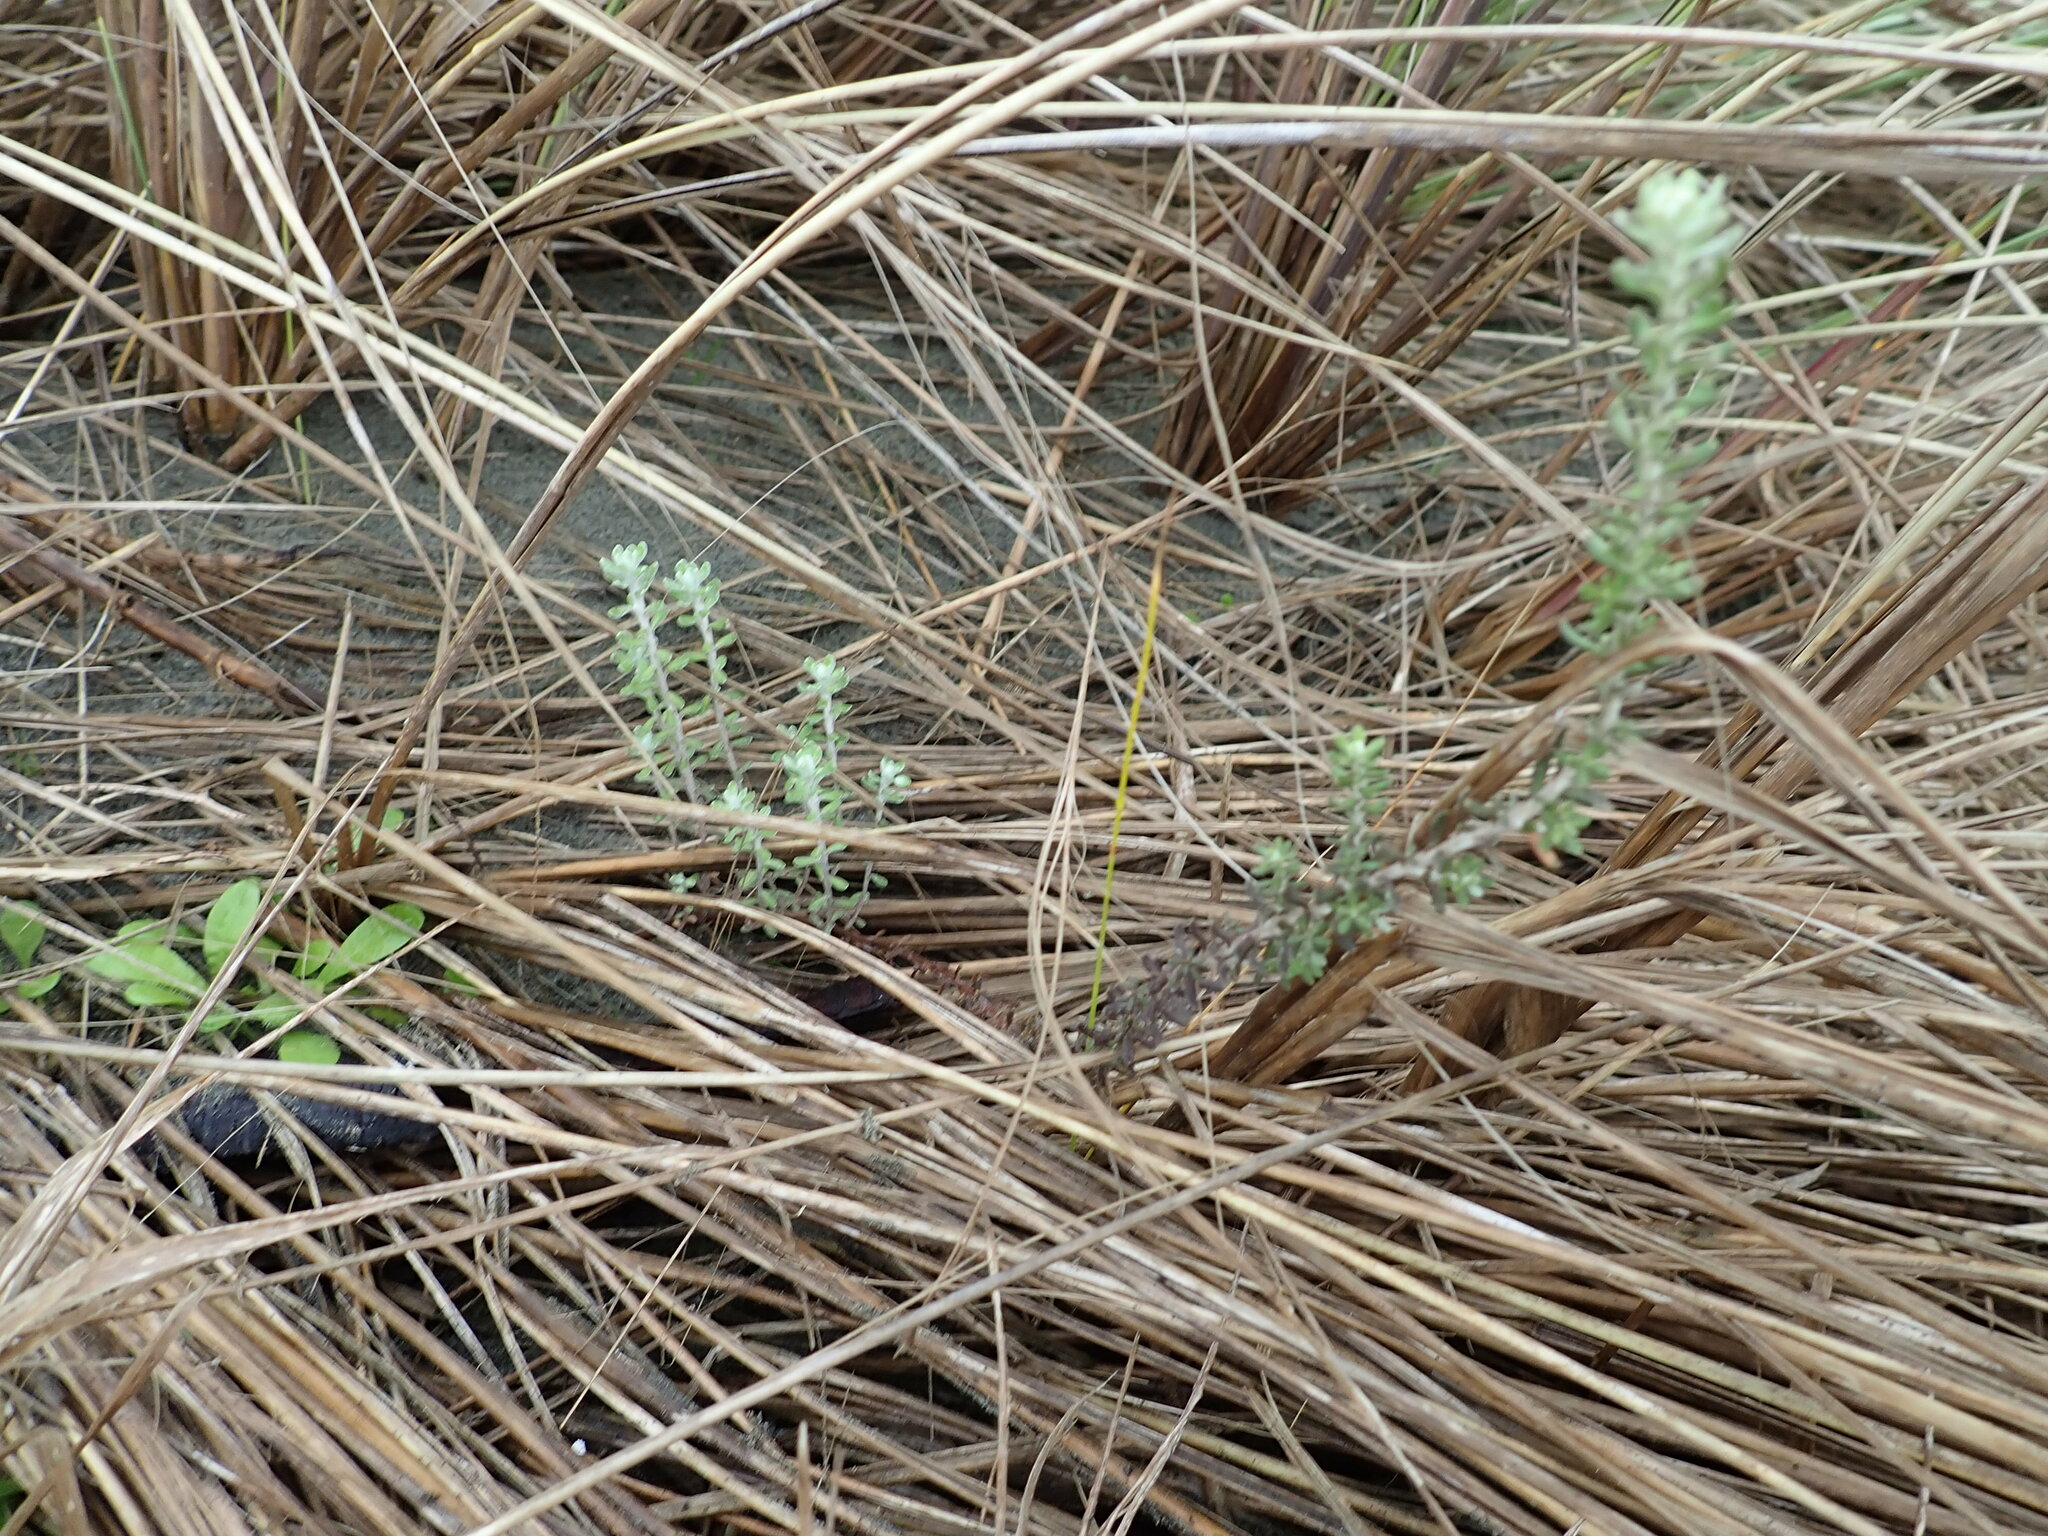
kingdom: Plantae
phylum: Tracheophyta
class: Magnoliopsida
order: Asterales
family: Asteraceae
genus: Ozothamnus
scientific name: Ozothamnus leptophyllus
